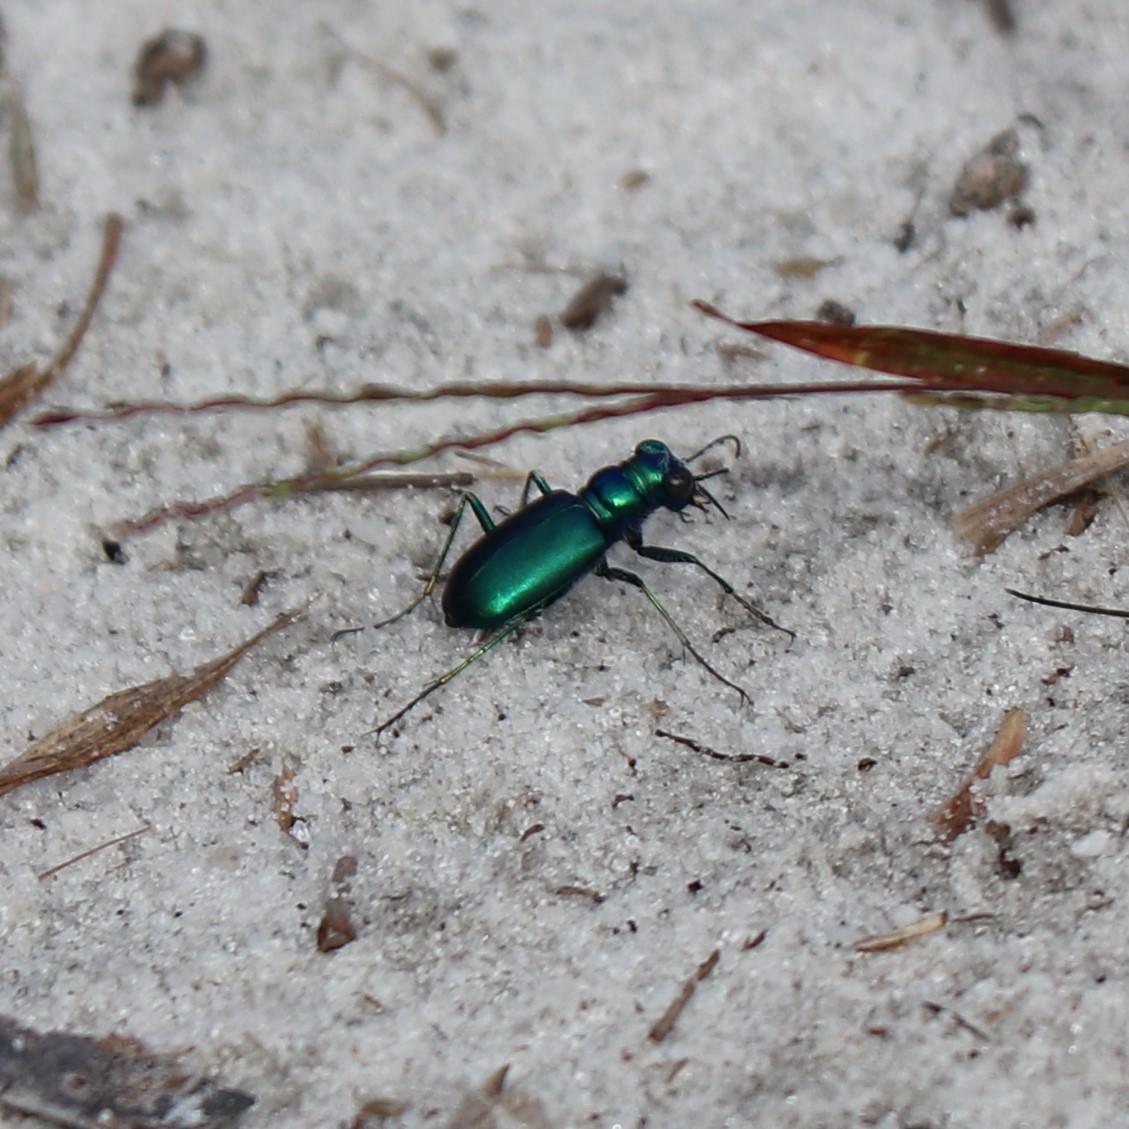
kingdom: Animalia
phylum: Arthropoda
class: Insecta
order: Coleoptera
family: Carabidae
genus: Cicindela
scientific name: Cicindela scutellaris
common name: Festive tiger beetle
